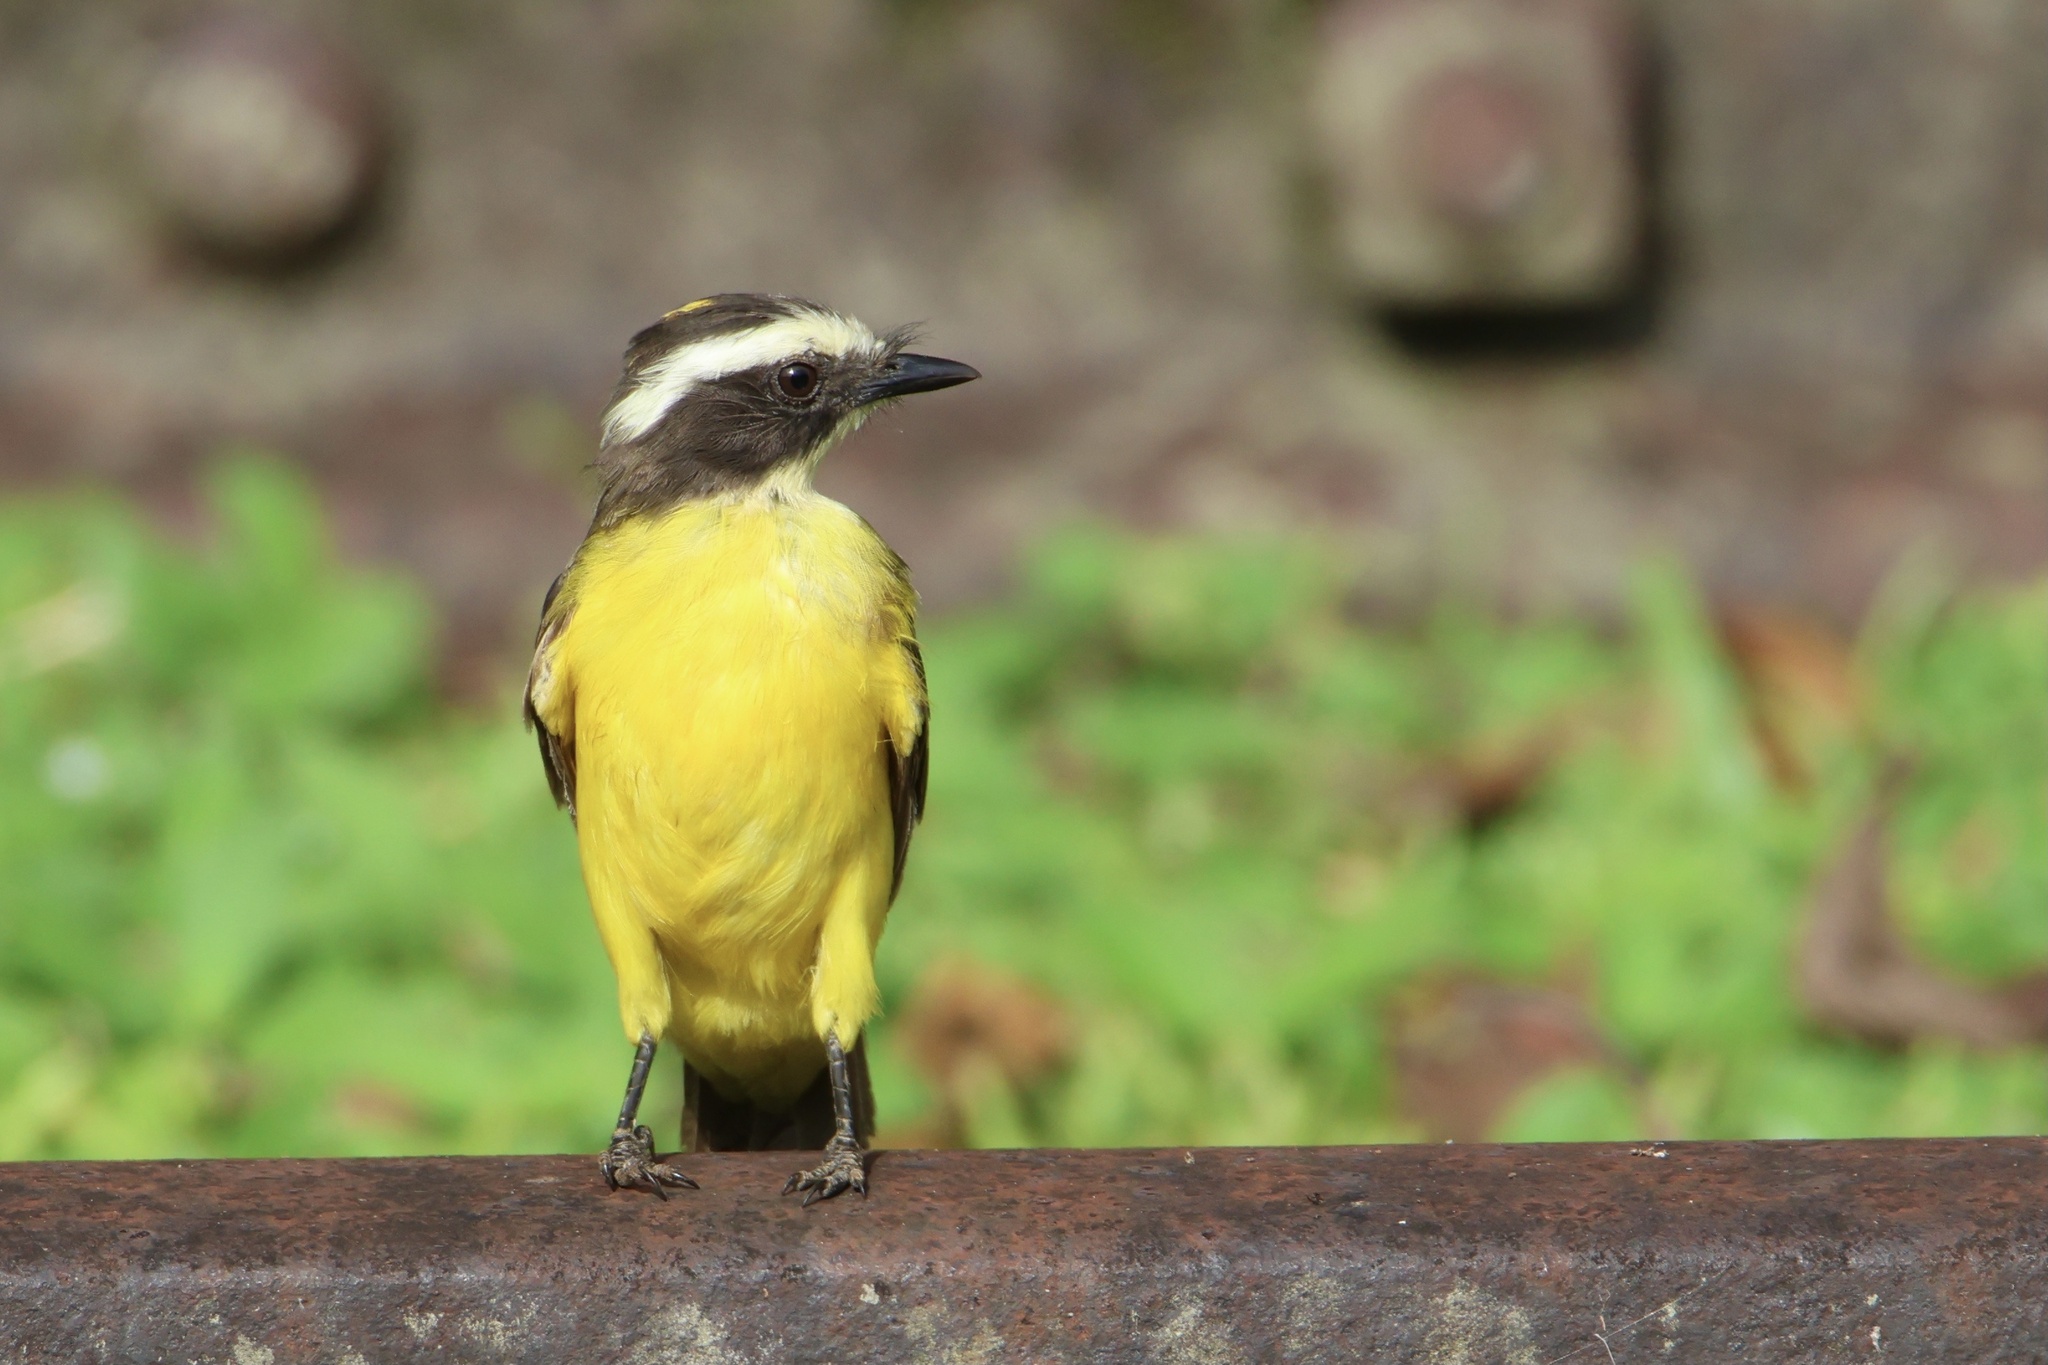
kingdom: Animalia
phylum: Chordata
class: Aves
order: Passeriformes
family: Tyrannidae
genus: Myiozetetes
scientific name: Myiozetetes cayanensis
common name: Rusty-margined flycatcher
